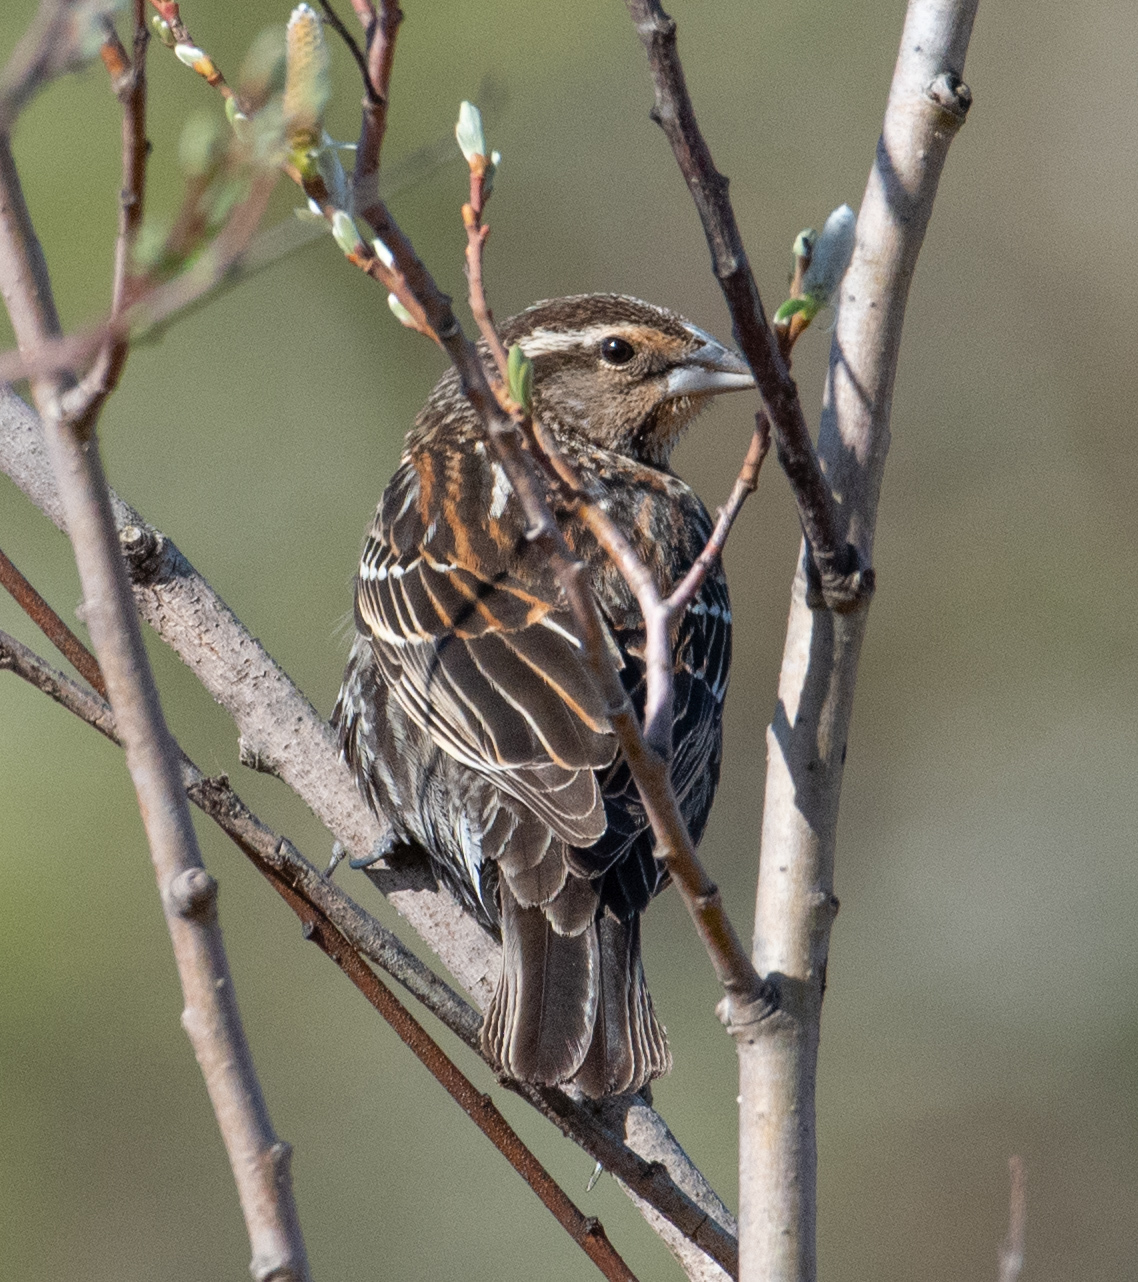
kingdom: Animalia
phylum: Chordata
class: Aves
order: Passeriformes
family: Icteridae
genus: Agelaius
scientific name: Agelaius phoeniceus
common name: Red-winged blackbird
